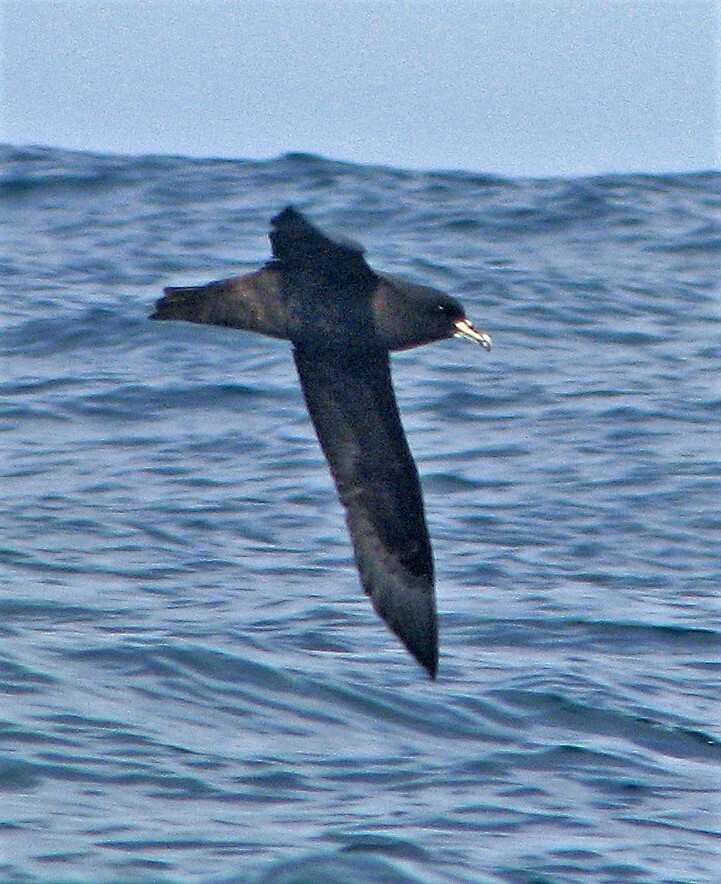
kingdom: Animalia
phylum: Chordata
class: Aves
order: Procellariiformes
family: Procellariidae
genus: Procellaria
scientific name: Procellaria aequinoctialis
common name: White-chinned petrel
